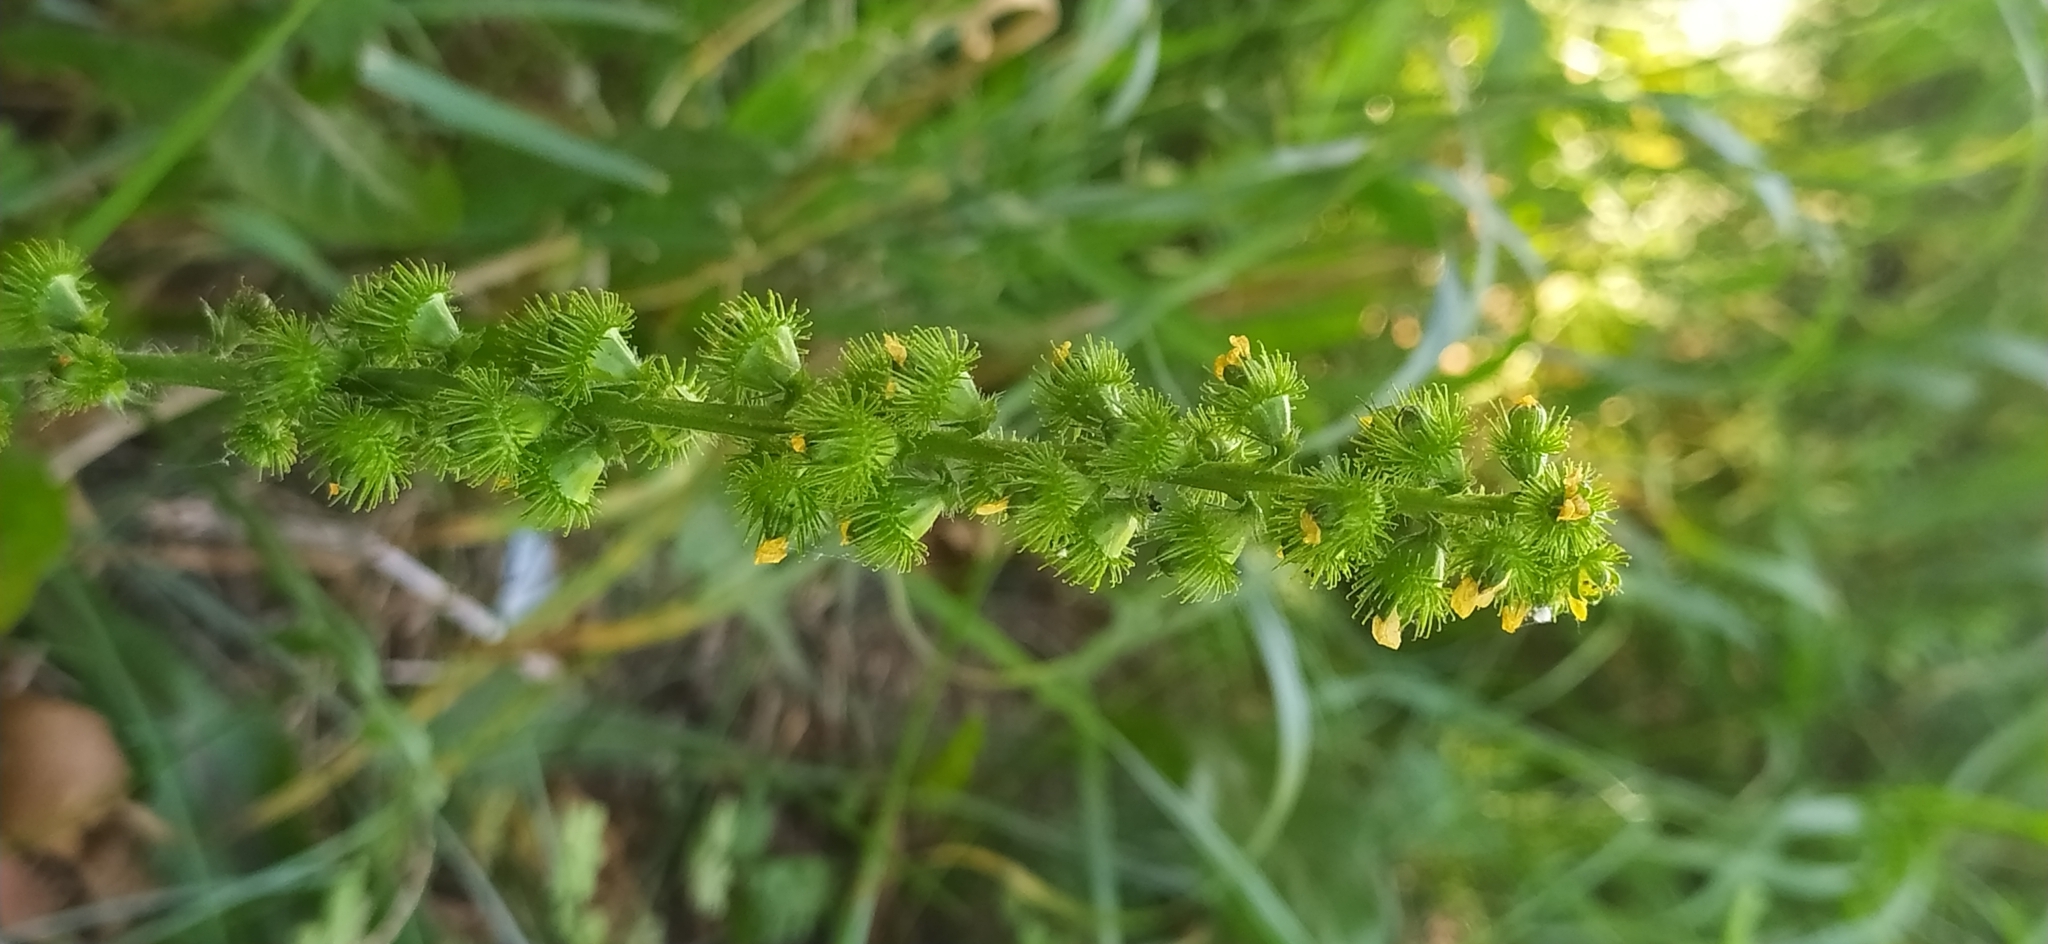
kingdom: Plantae
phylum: Tracheophyta
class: Magnoliopsida
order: Rosales
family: Rosaceae
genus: Agrimonia
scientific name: Agrimonia eupatoria
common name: Agrimony
